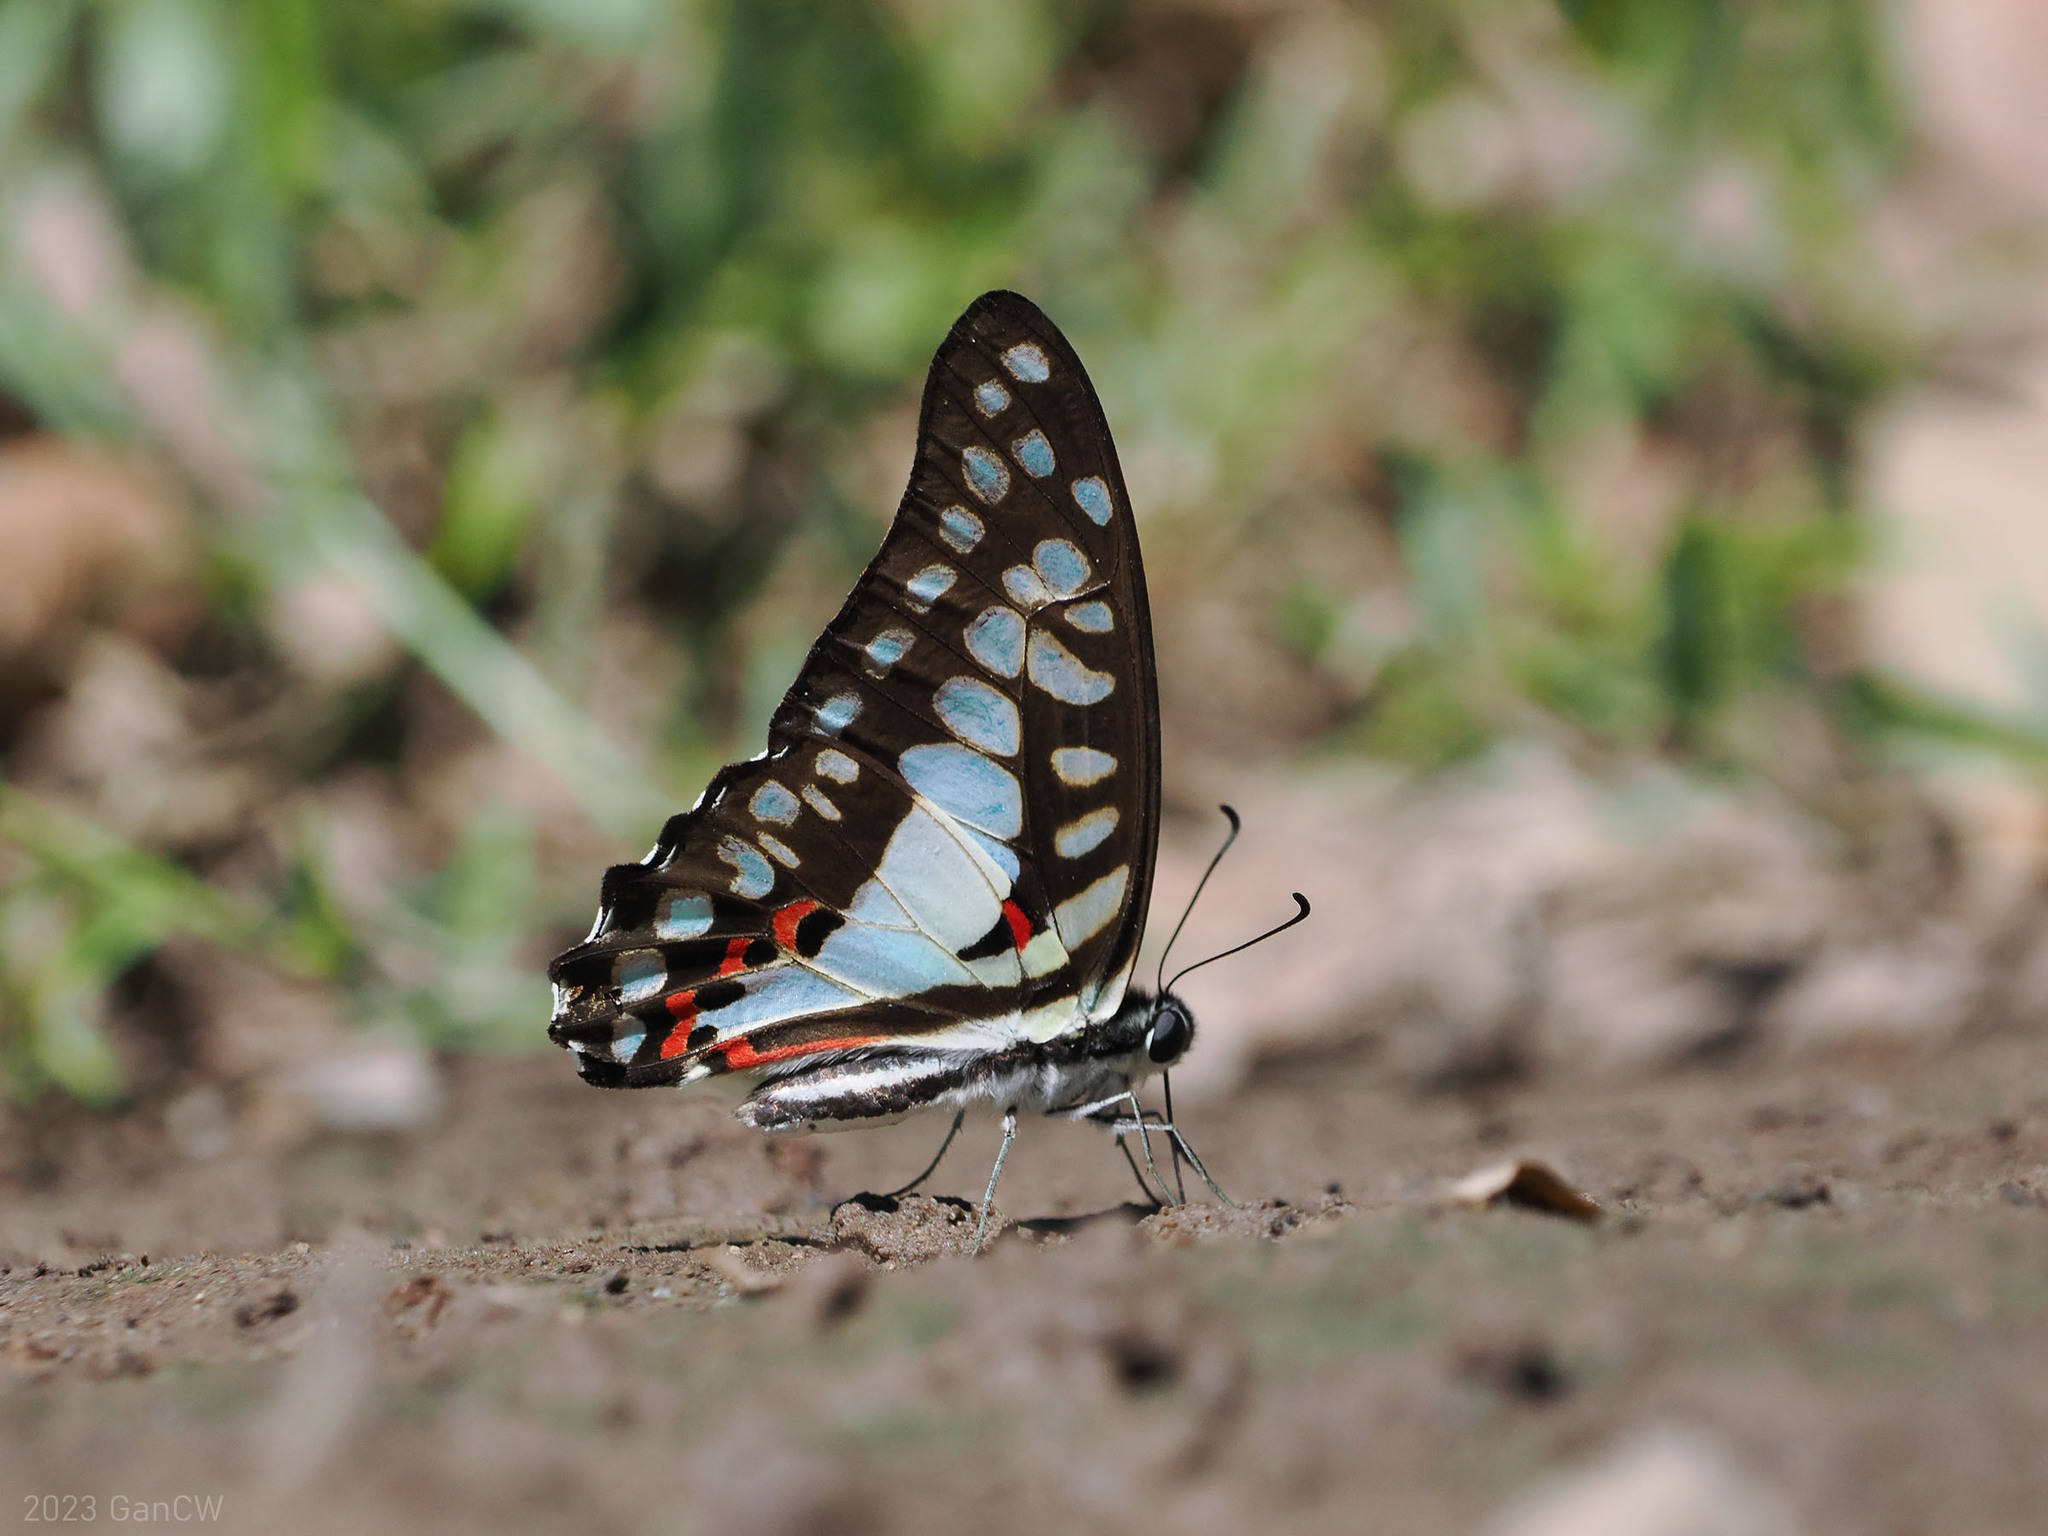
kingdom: Animalia
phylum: Arthropoda
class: Insecta
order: Lepidoptera
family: Papilionidae
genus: Graphium
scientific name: Graphium doson
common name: Common jay
